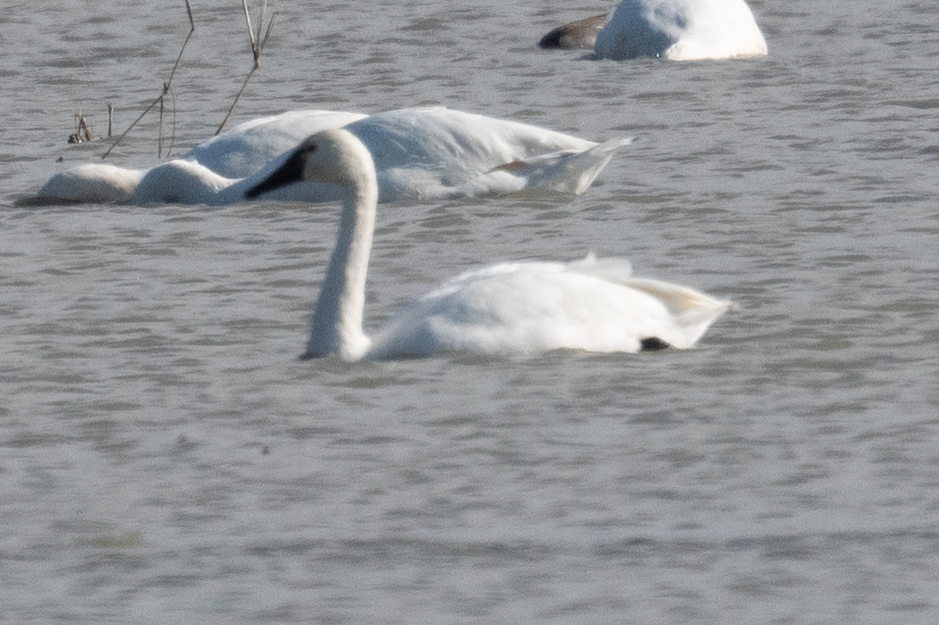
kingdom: Animalia
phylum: Chordata
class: Aves
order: Anseriformes
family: Anatidae
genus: Cygnus
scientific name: Cygnus columbianus
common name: Tundra swan
